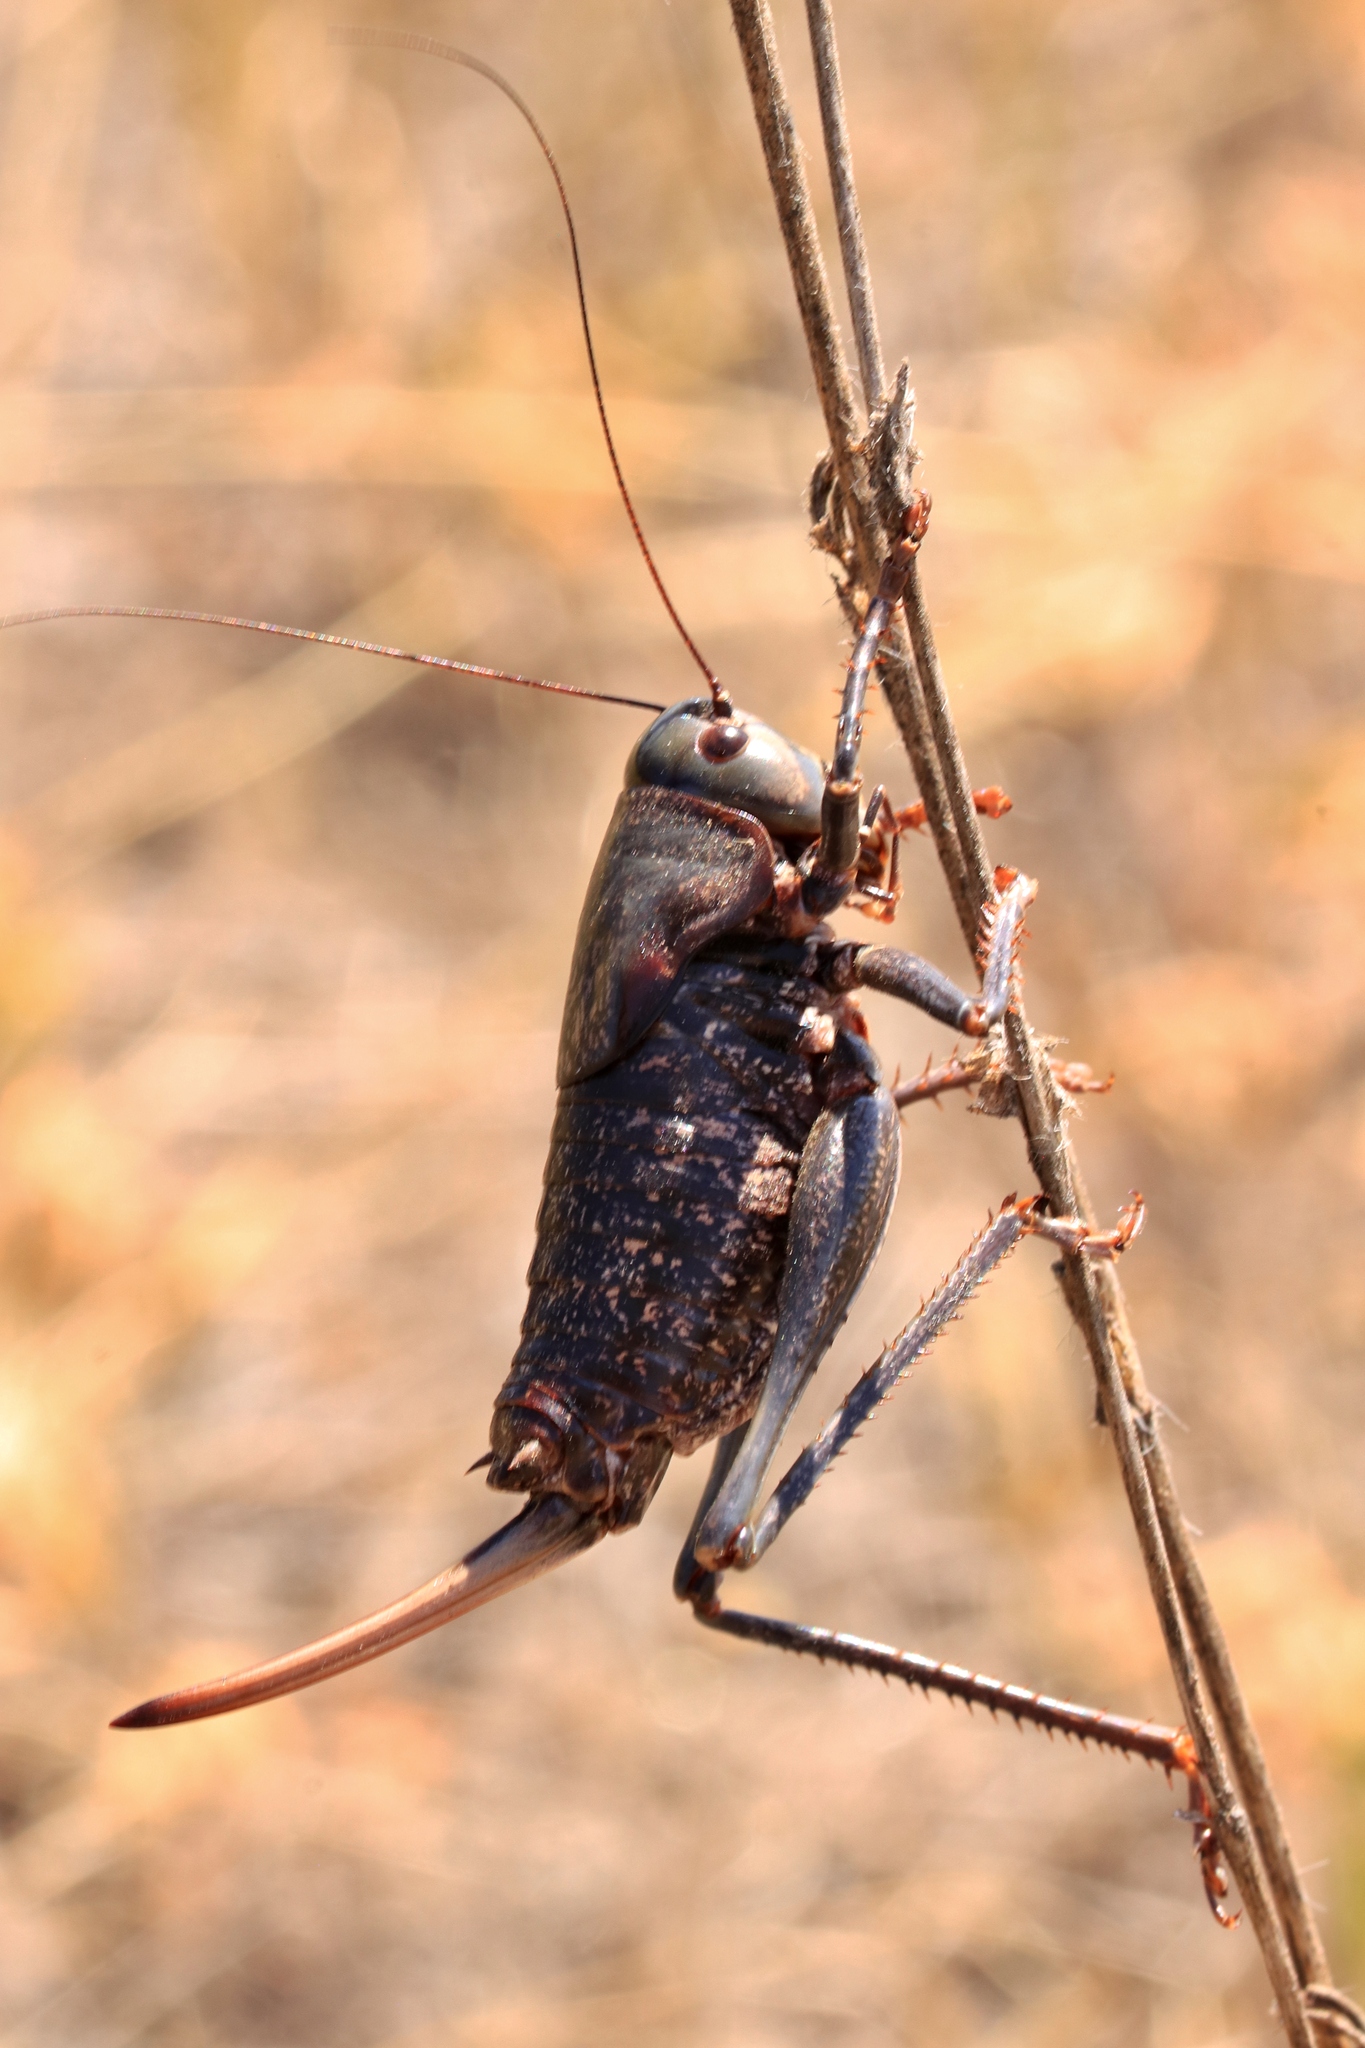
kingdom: Animalia
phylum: Arthropoda
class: Insecta
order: Orthoptera
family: Tettigoniidae
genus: Anabrus
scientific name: Anabrus simplex
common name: Mormon cricket
